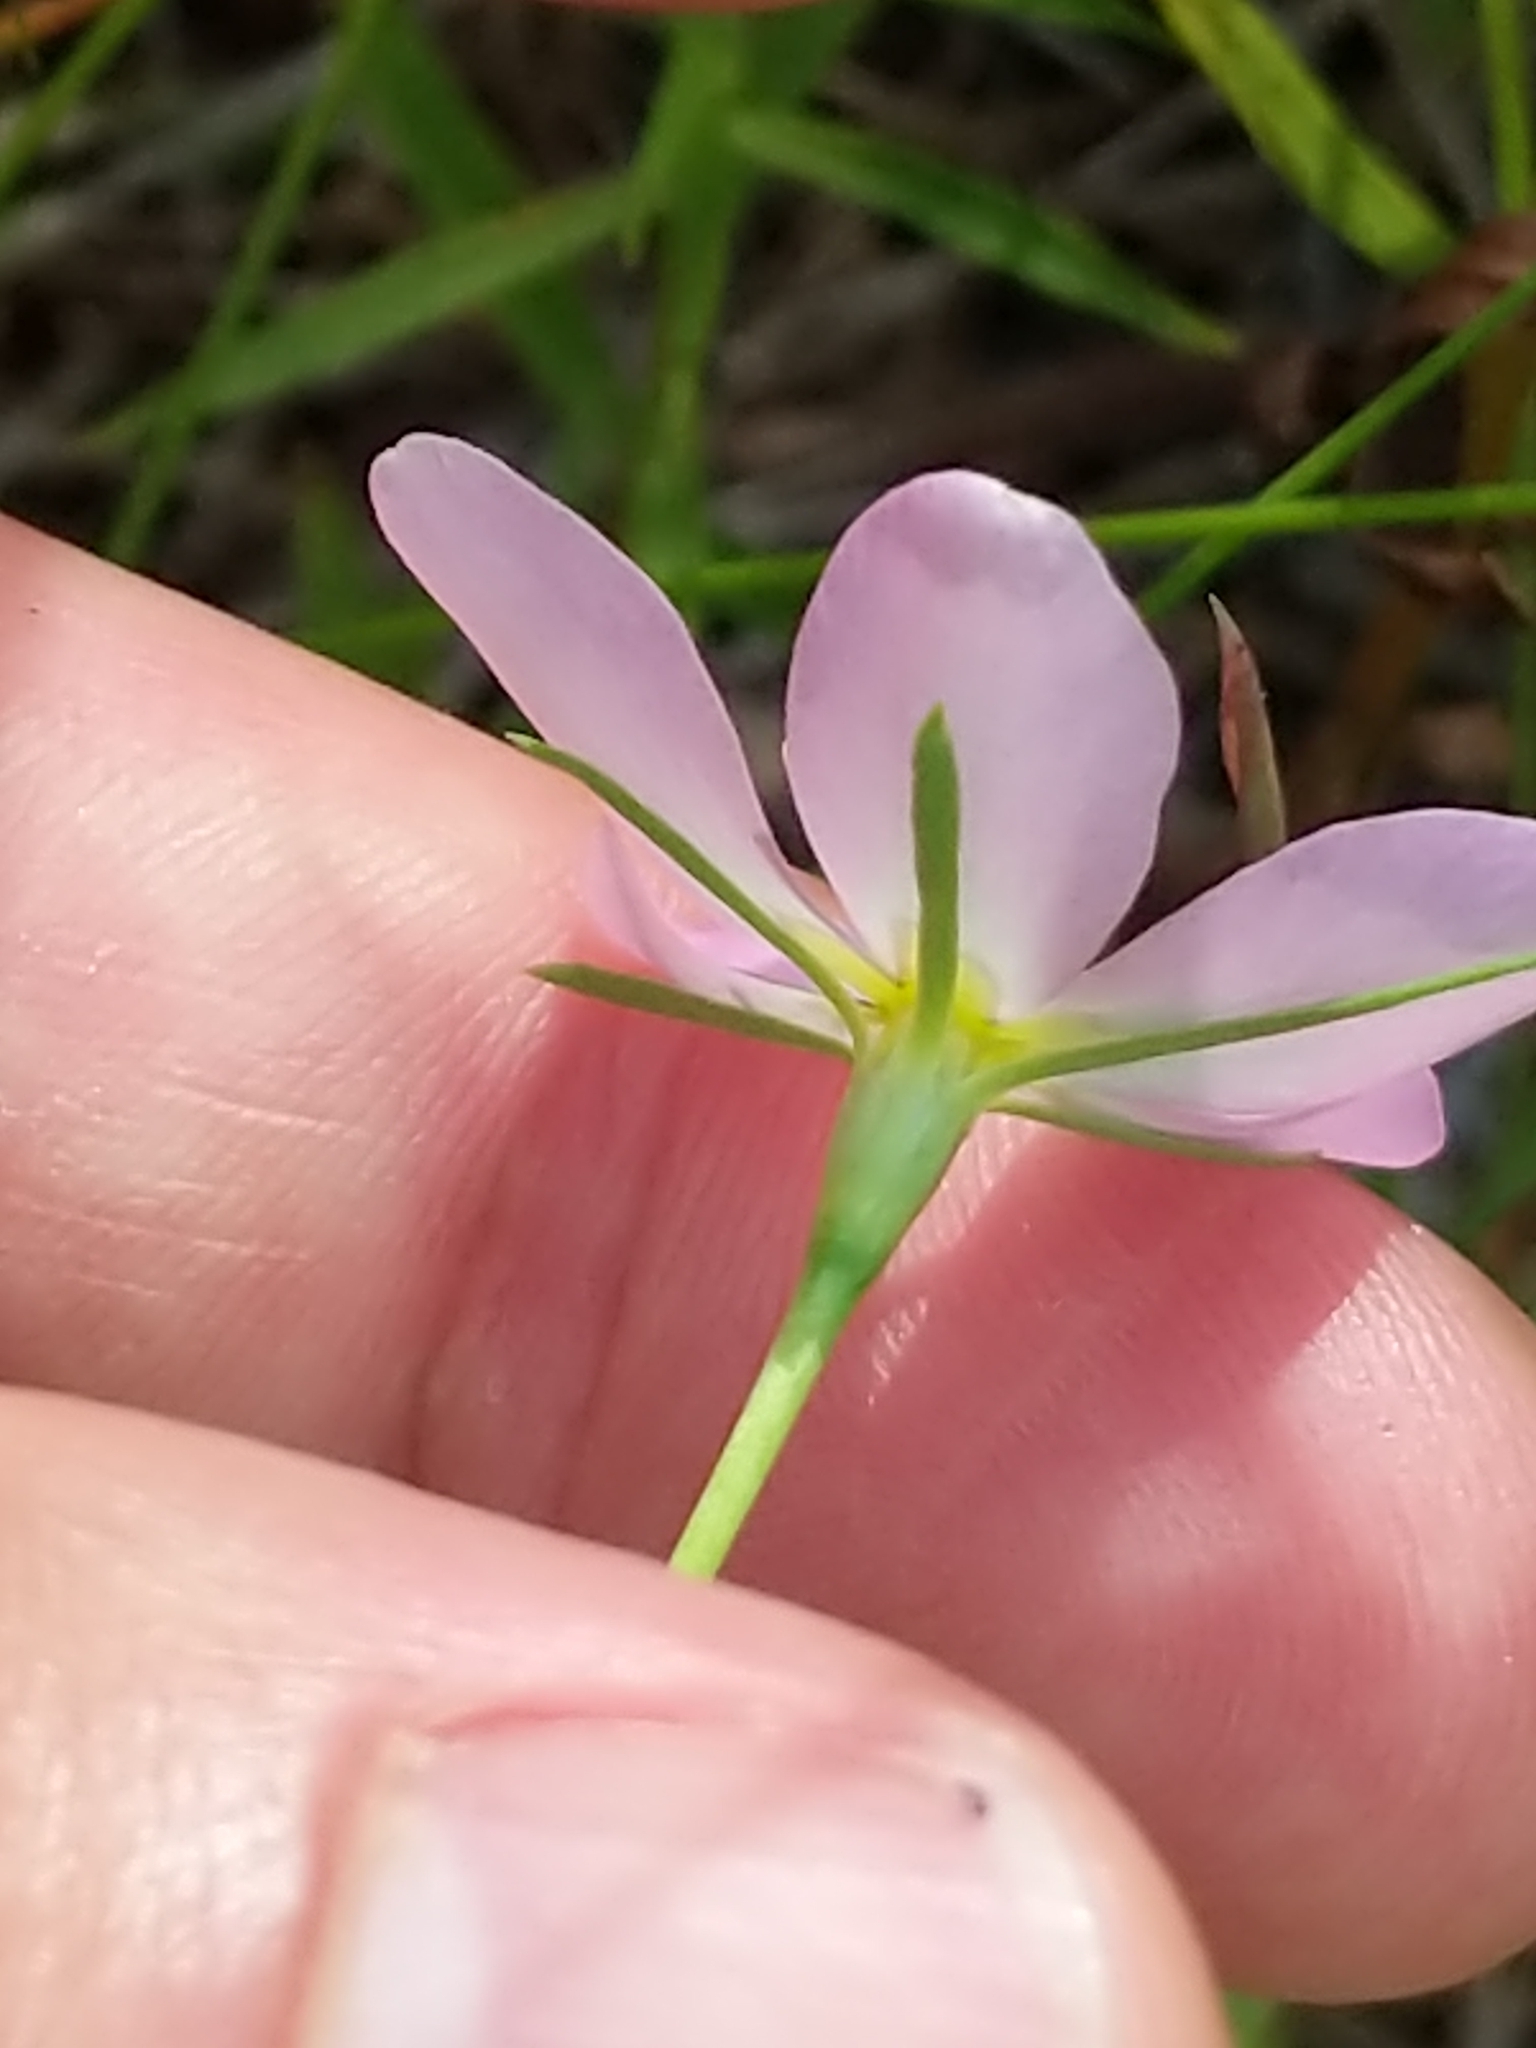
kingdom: Plantae
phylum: Tracheophyta
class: Magnoliopsida
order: Gentianales
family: Gentianaceae
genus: Sabatia
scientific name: Sabatia stellaris
